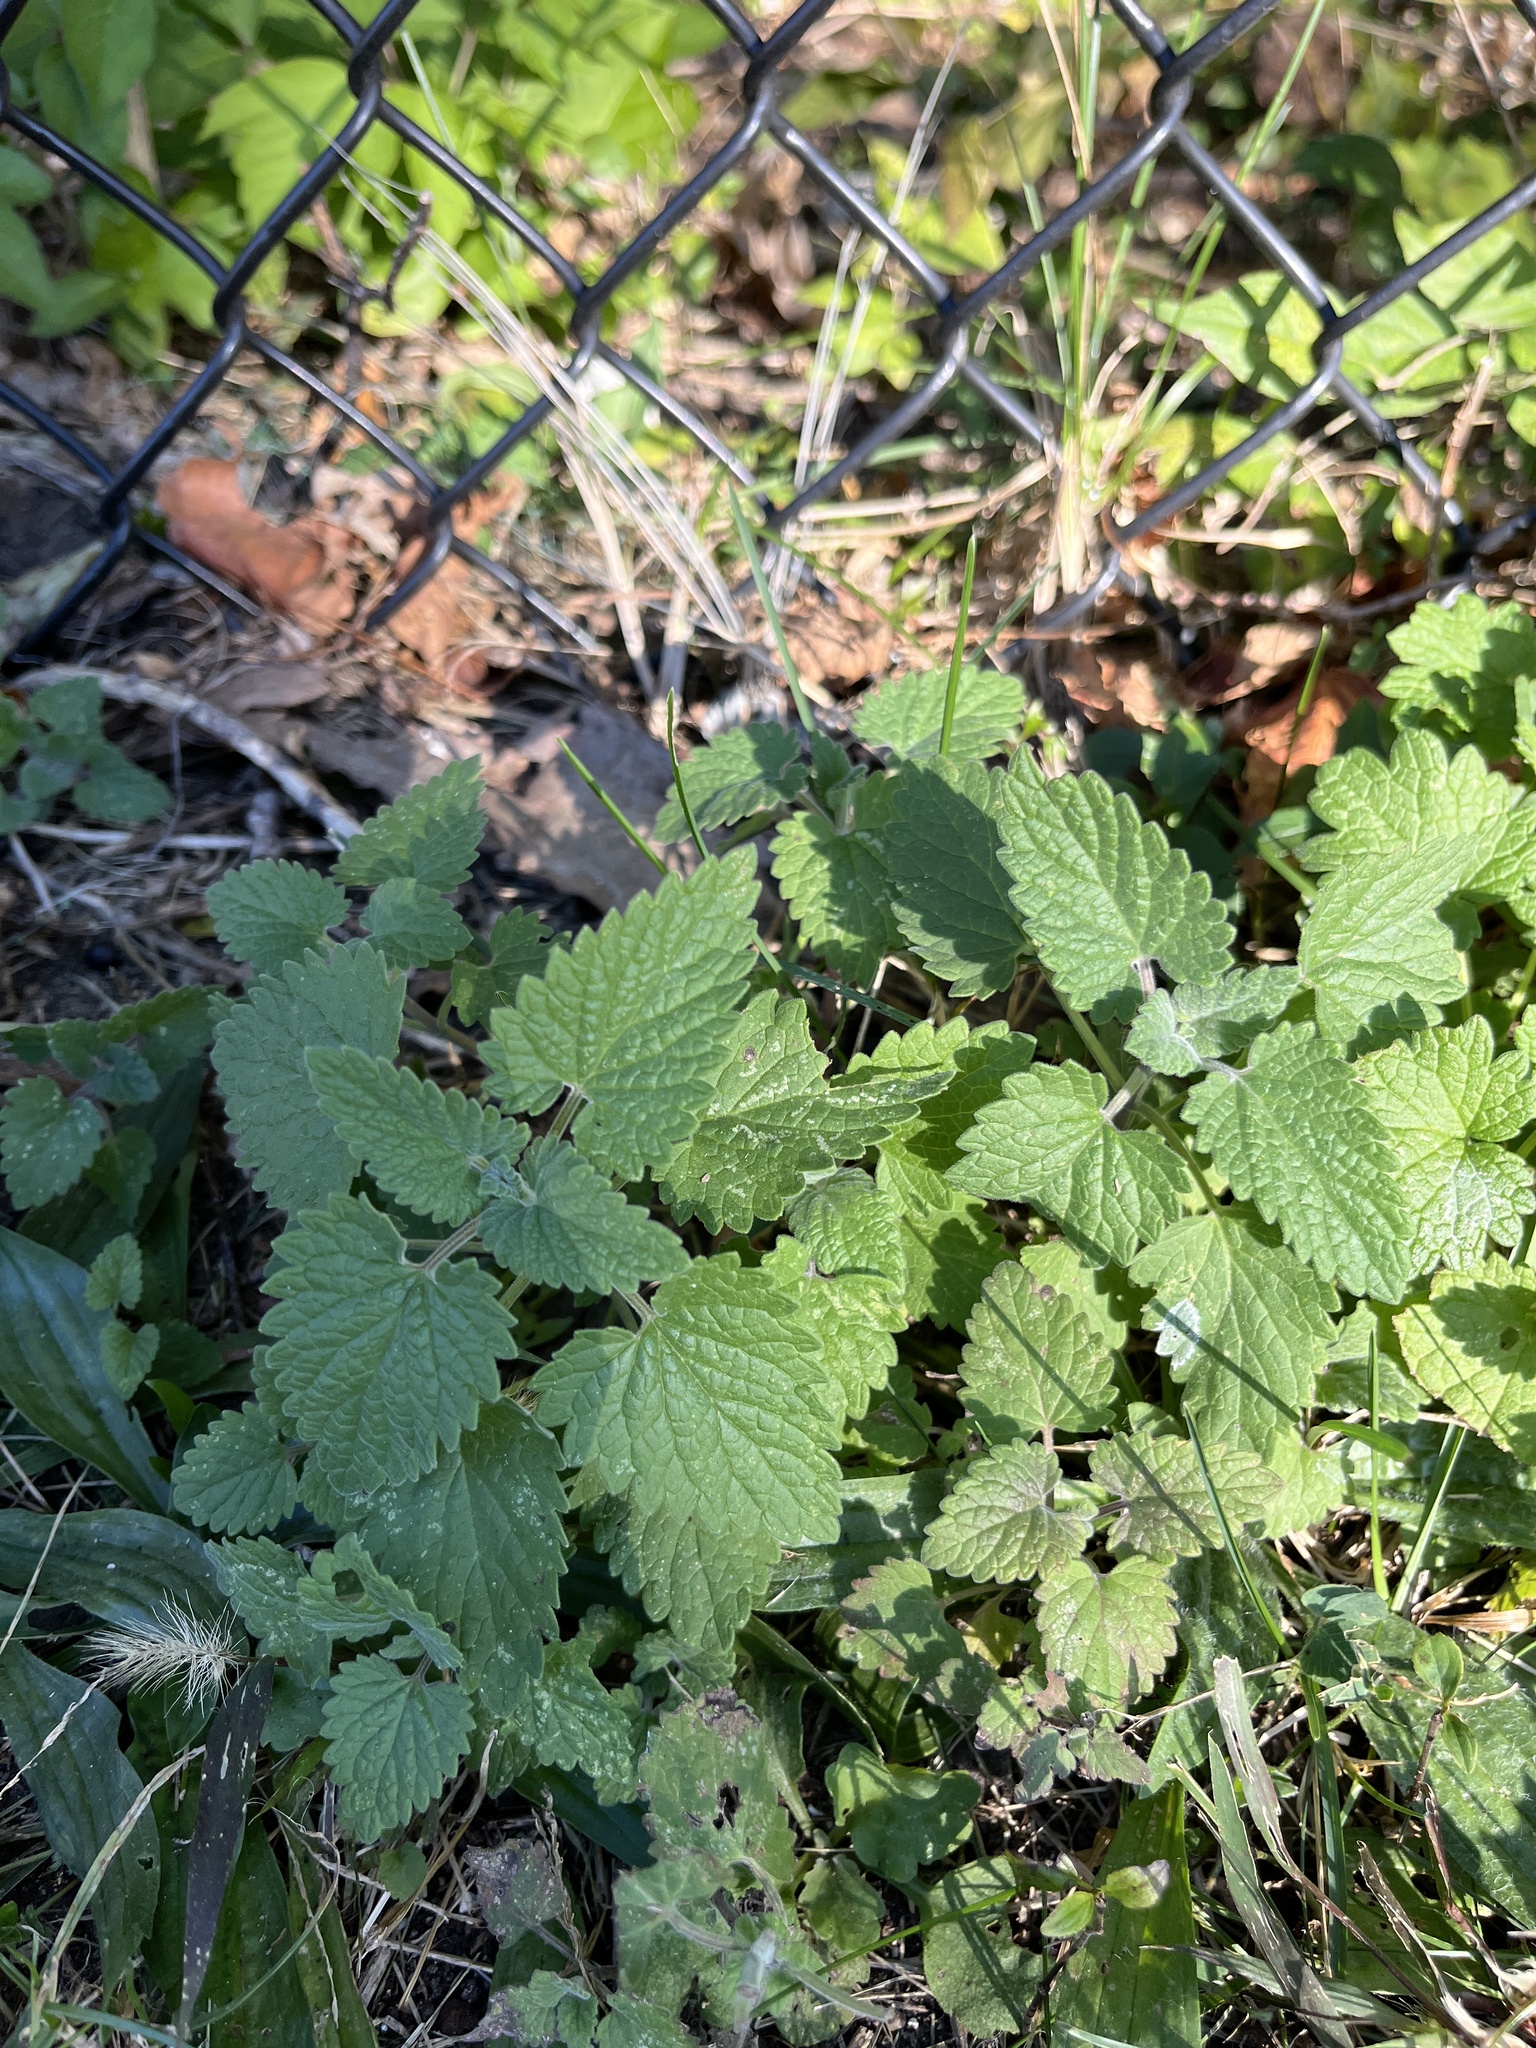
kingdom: Plantae
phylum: Tracheophyta
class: Magnoliopsida
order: Lamiales
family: Lamiaceae
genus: Nepeta
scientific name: Nepeta cataria
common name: Catnip
